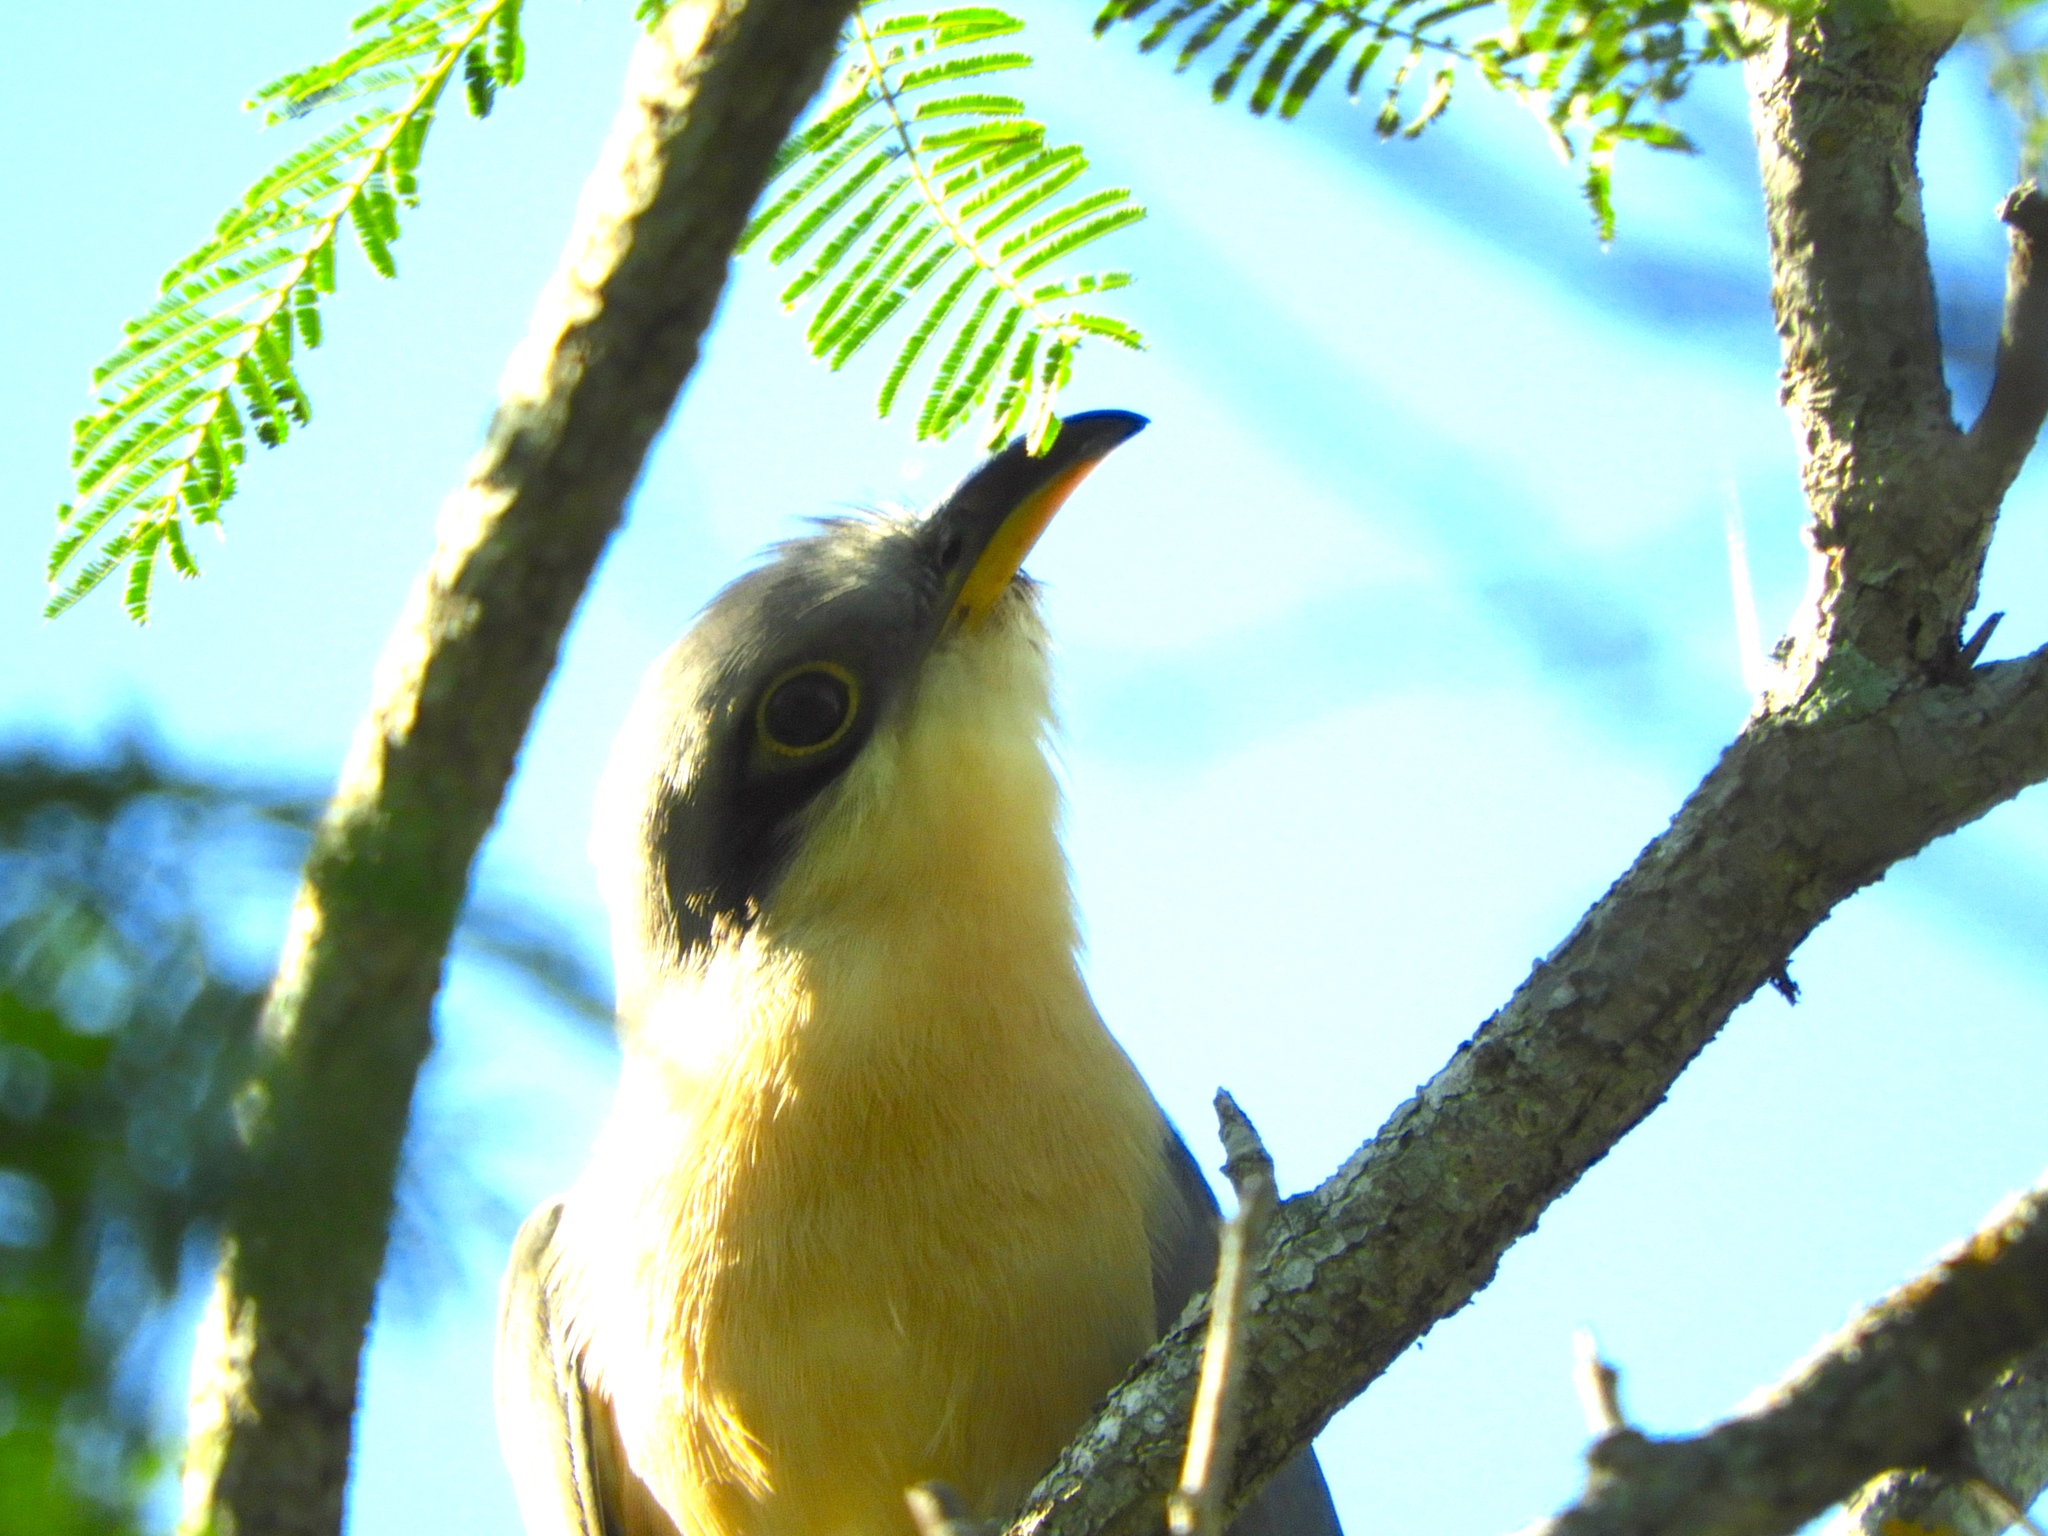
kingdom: Animalia
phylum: Chordata
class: Aves
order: Cuculiformes
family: Cuculidae
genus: Coccyzus
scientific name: Coccyzus minor
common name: Mangrove cuckoo
